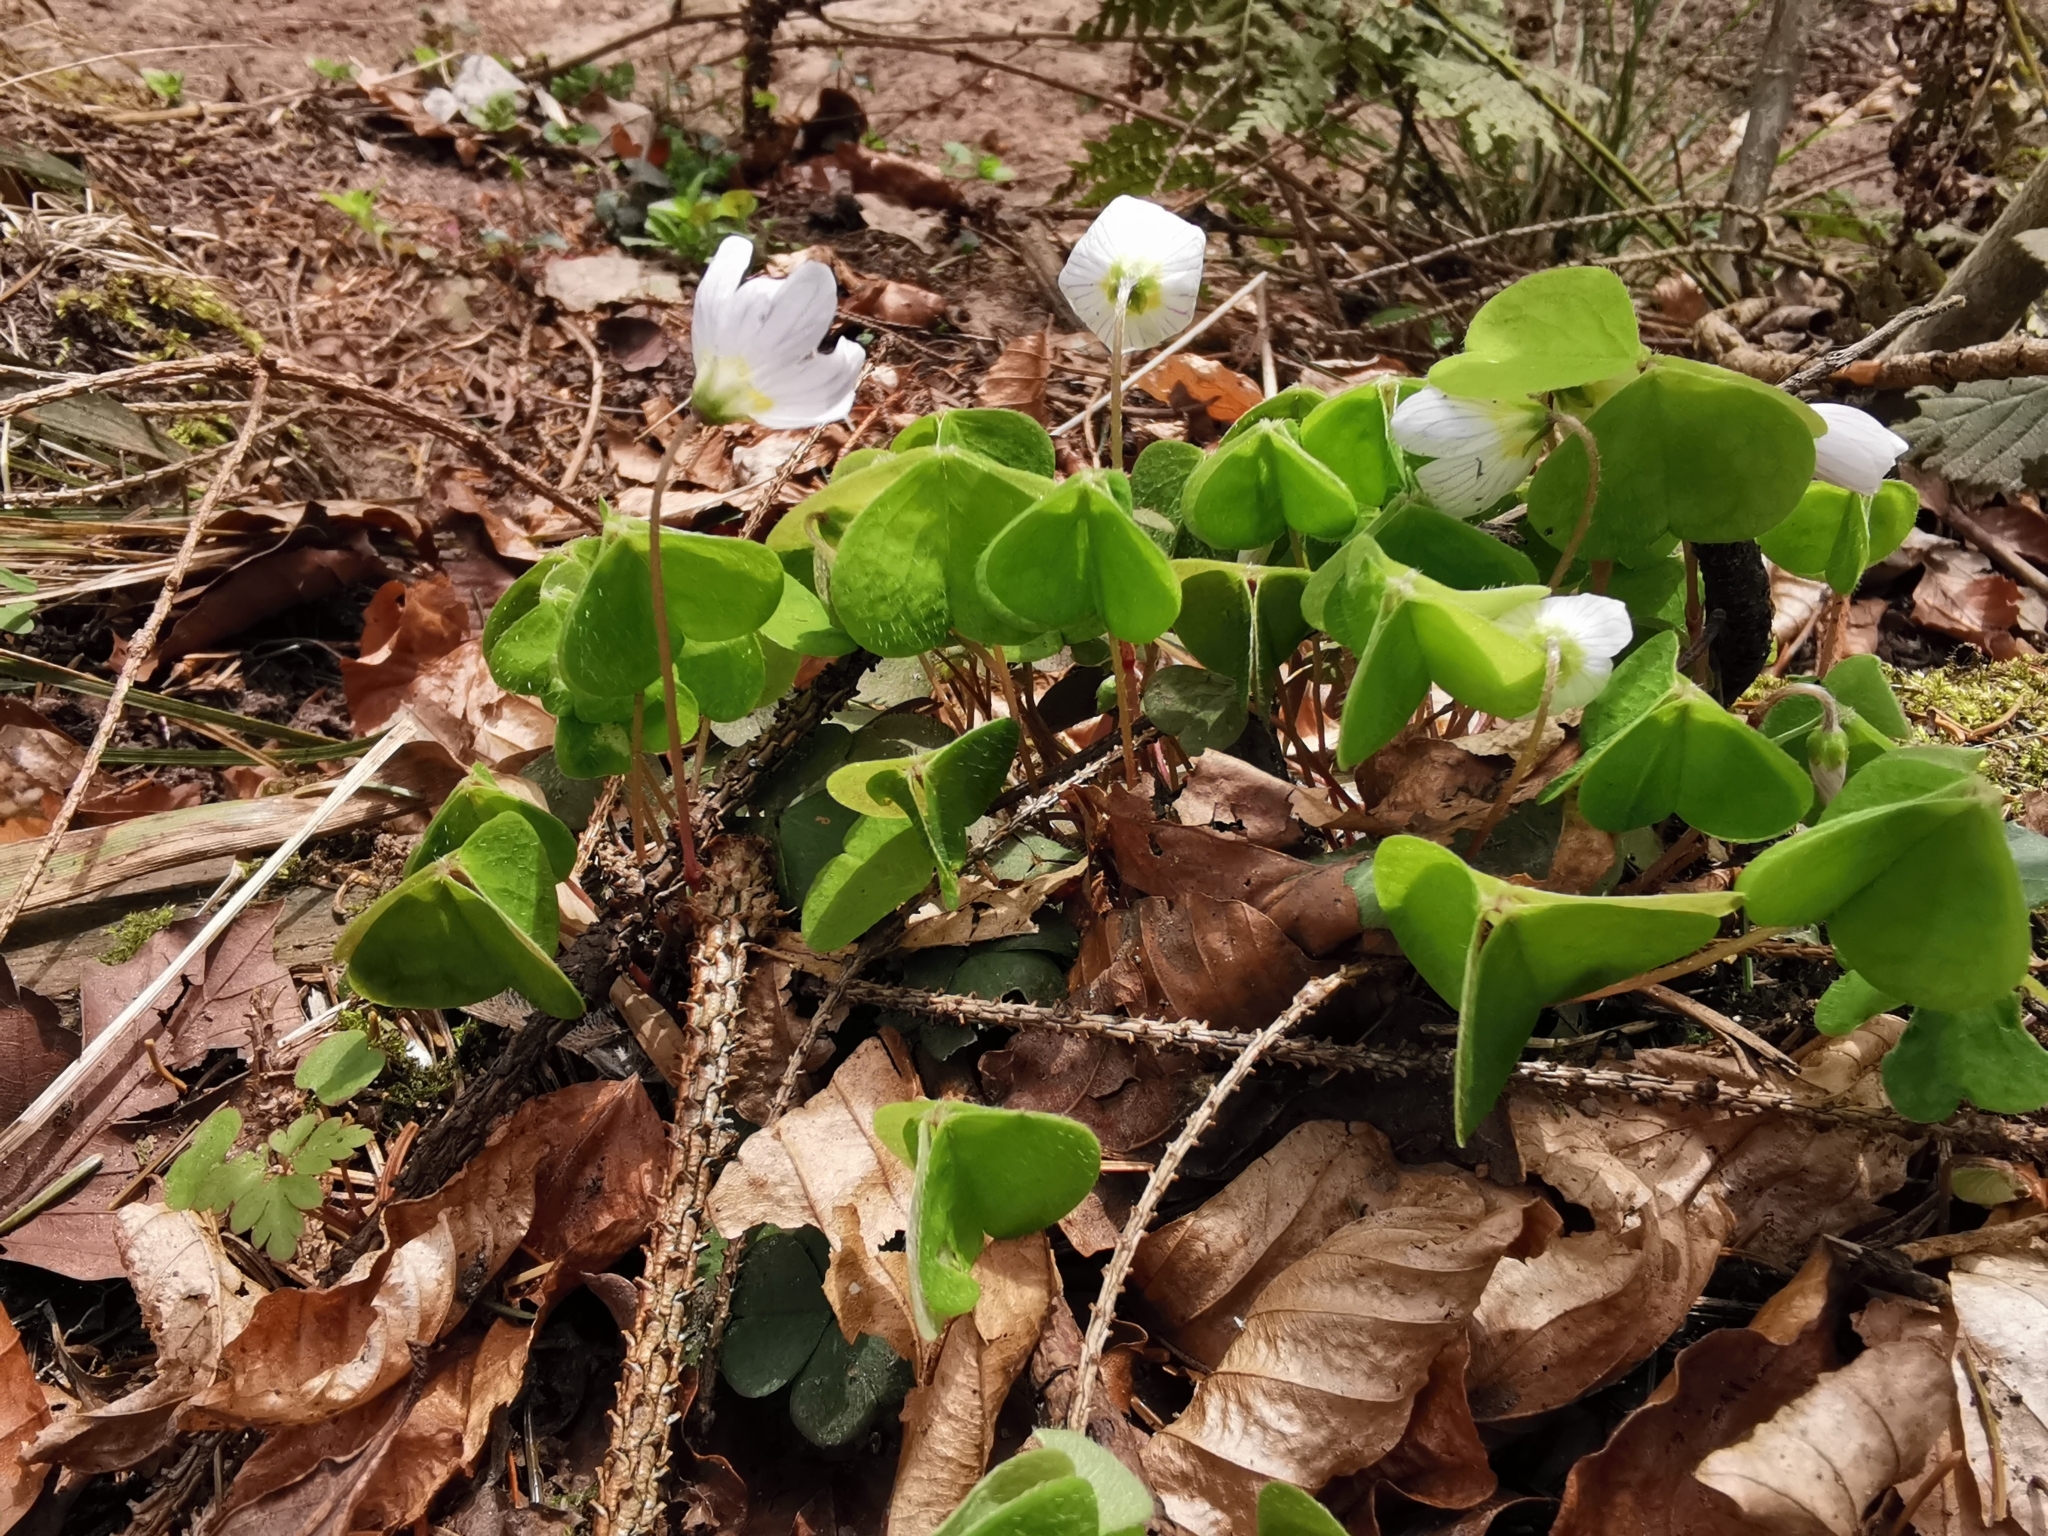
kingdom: Plantae
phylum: Tracheophyta
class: Magnoliopsida
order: Oxalidales
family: Oxalidaceae
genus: Oxalis
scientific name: Oxalis acetosella
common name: Wood-sorrel
